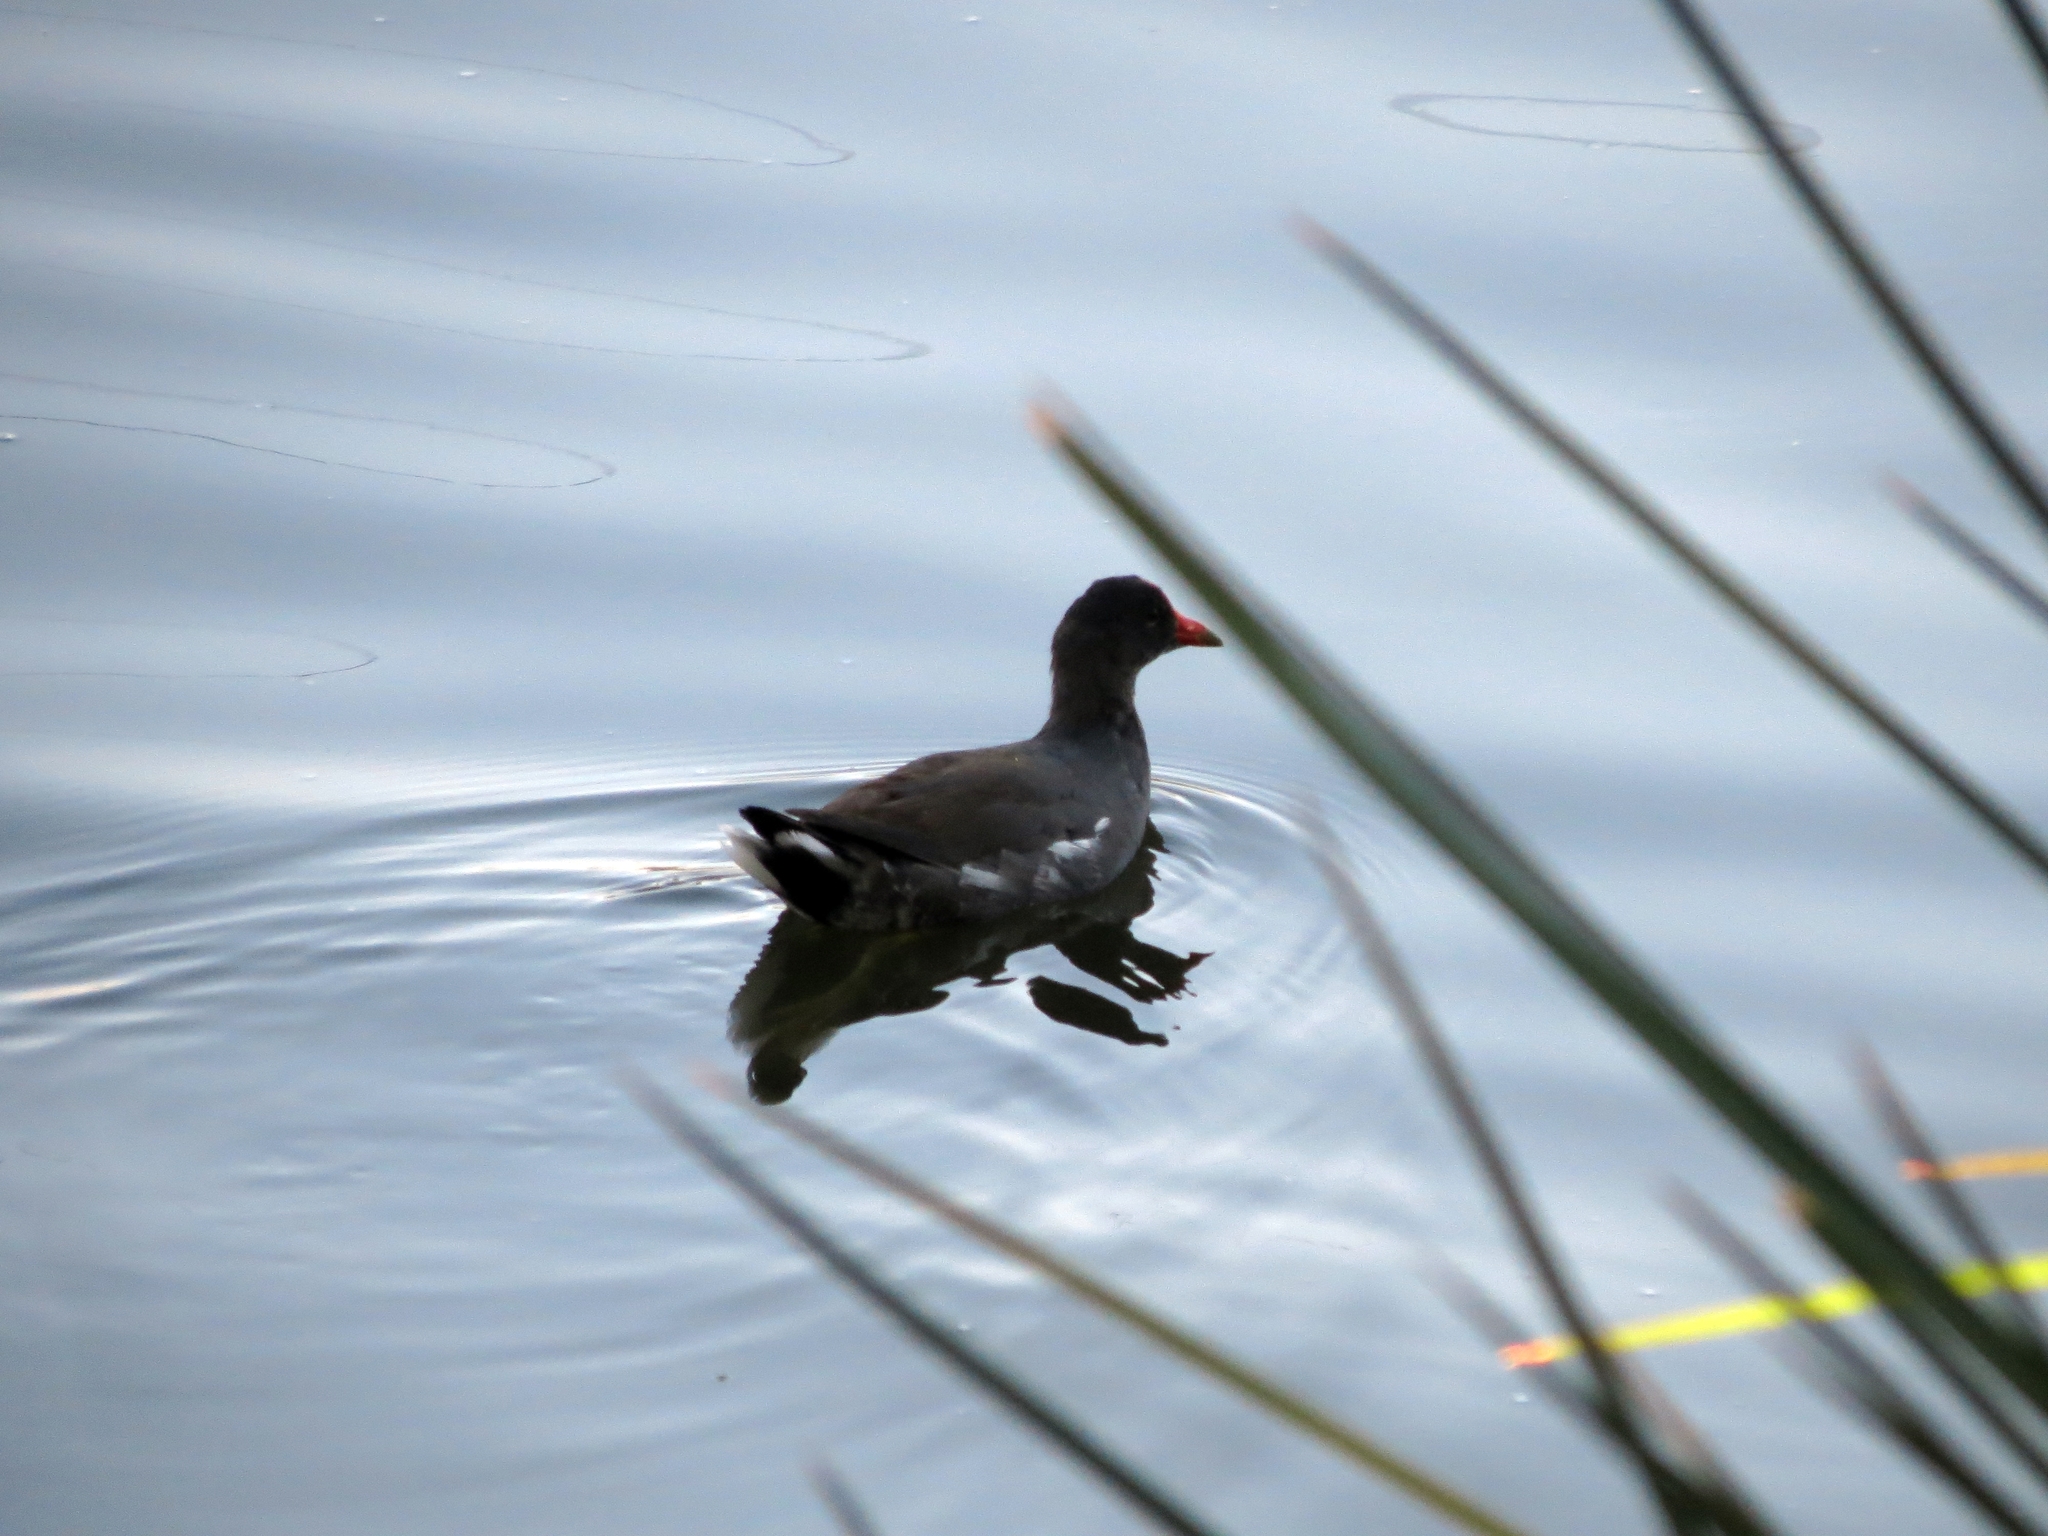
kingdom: Animalia
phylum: Chordata
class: Aves
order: Gruiformes
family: Rallidae
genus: Gallinula
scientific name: Gallinula chloropus
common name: Common moorhen
